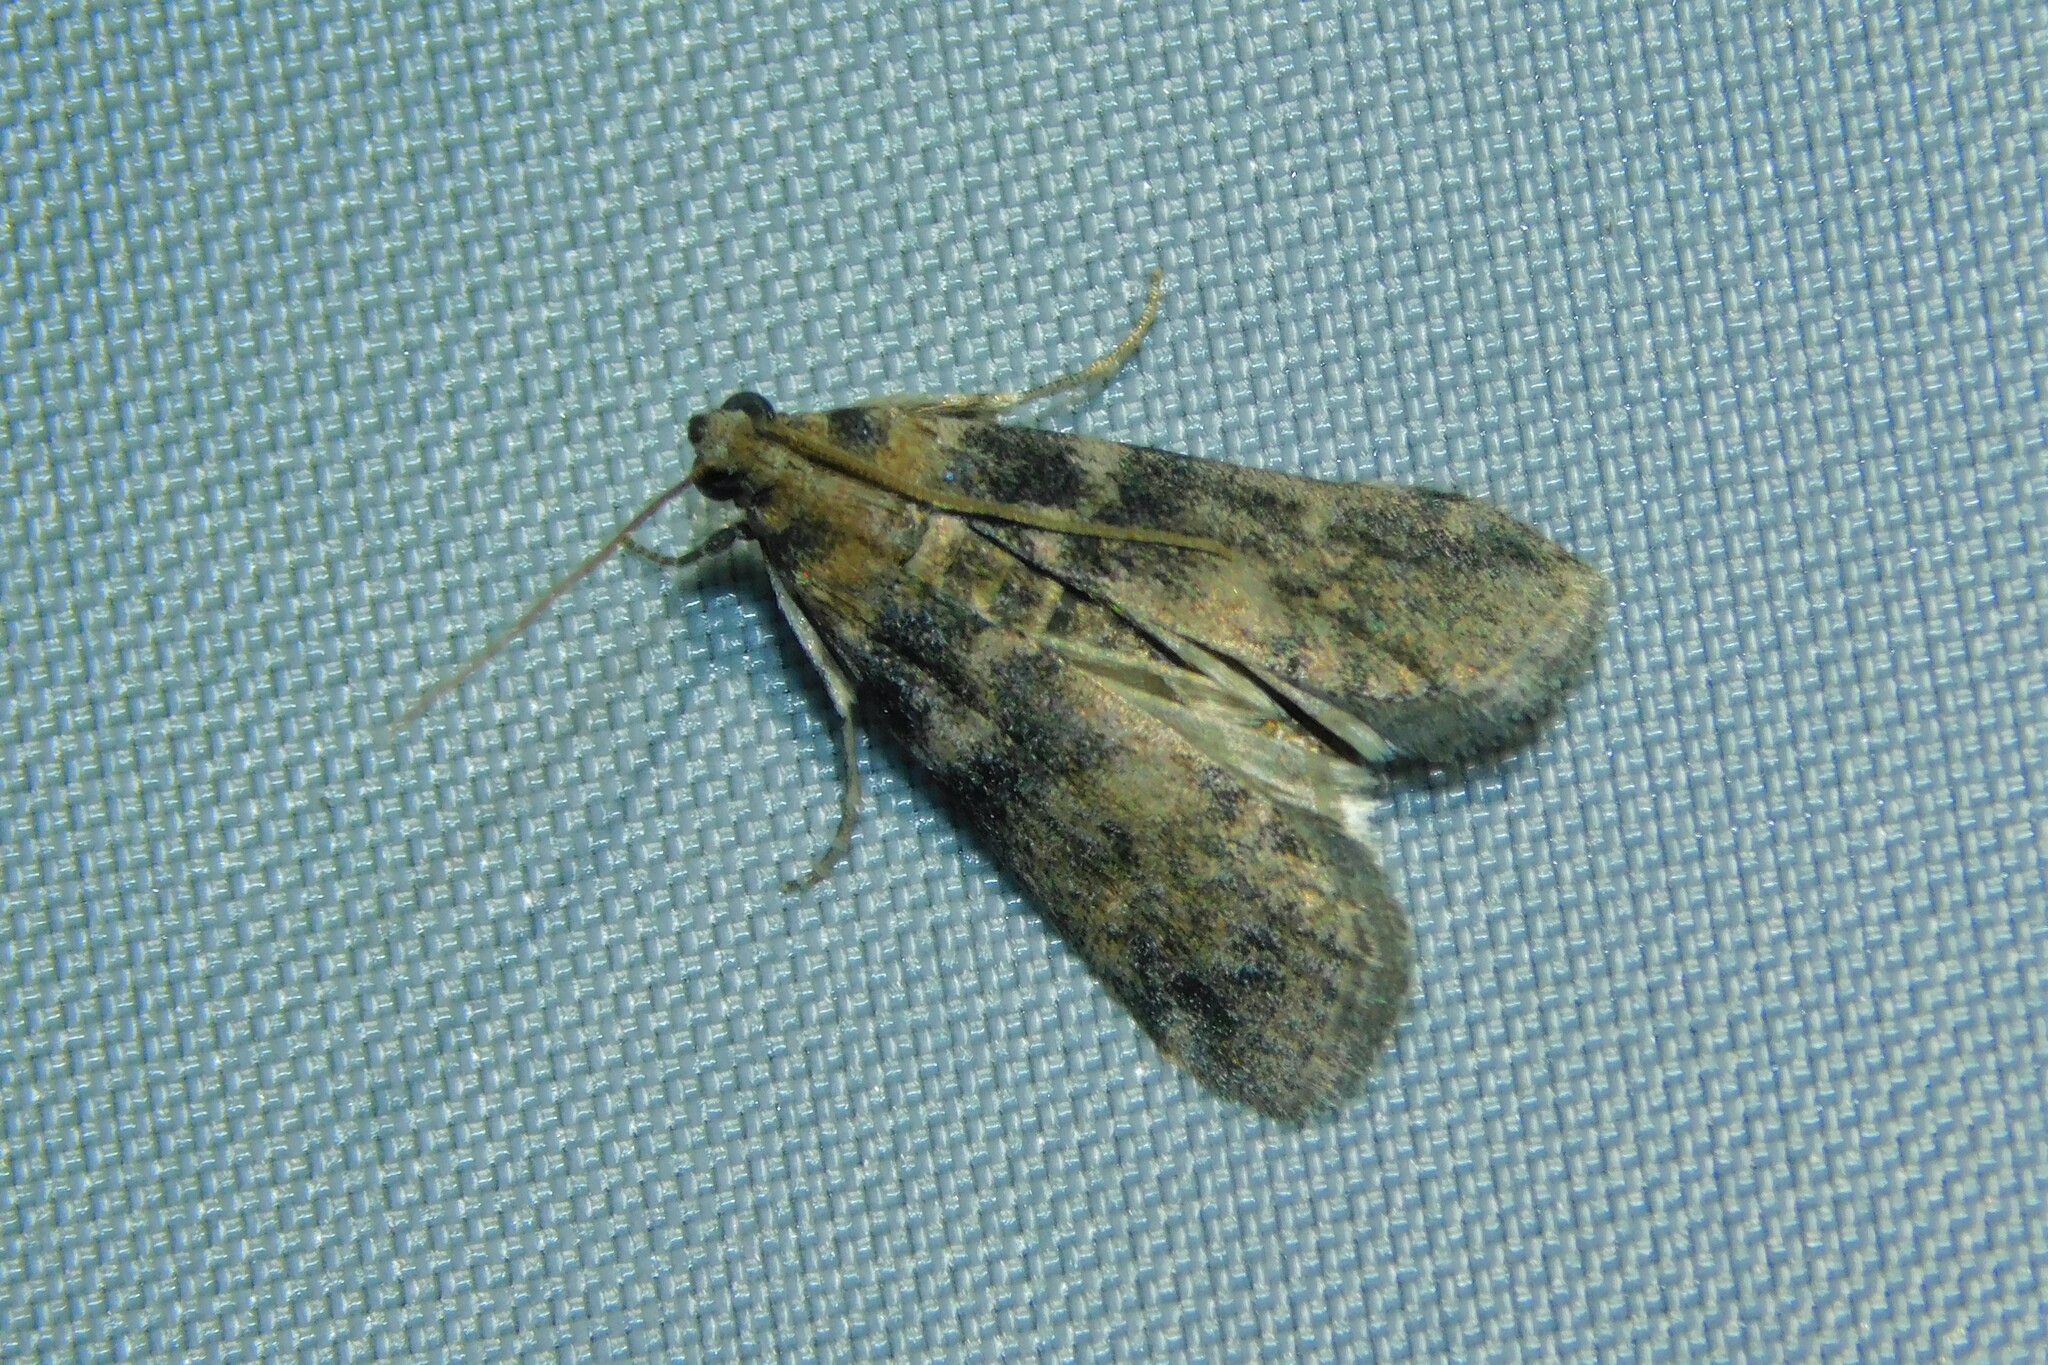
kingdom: Animalia
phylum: Arthropoda
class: Insecta
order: Lepidoptera
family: Pyralidae
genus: Euzophera
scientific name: Euzophera pinguis
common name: Ash-bark knot-horn
